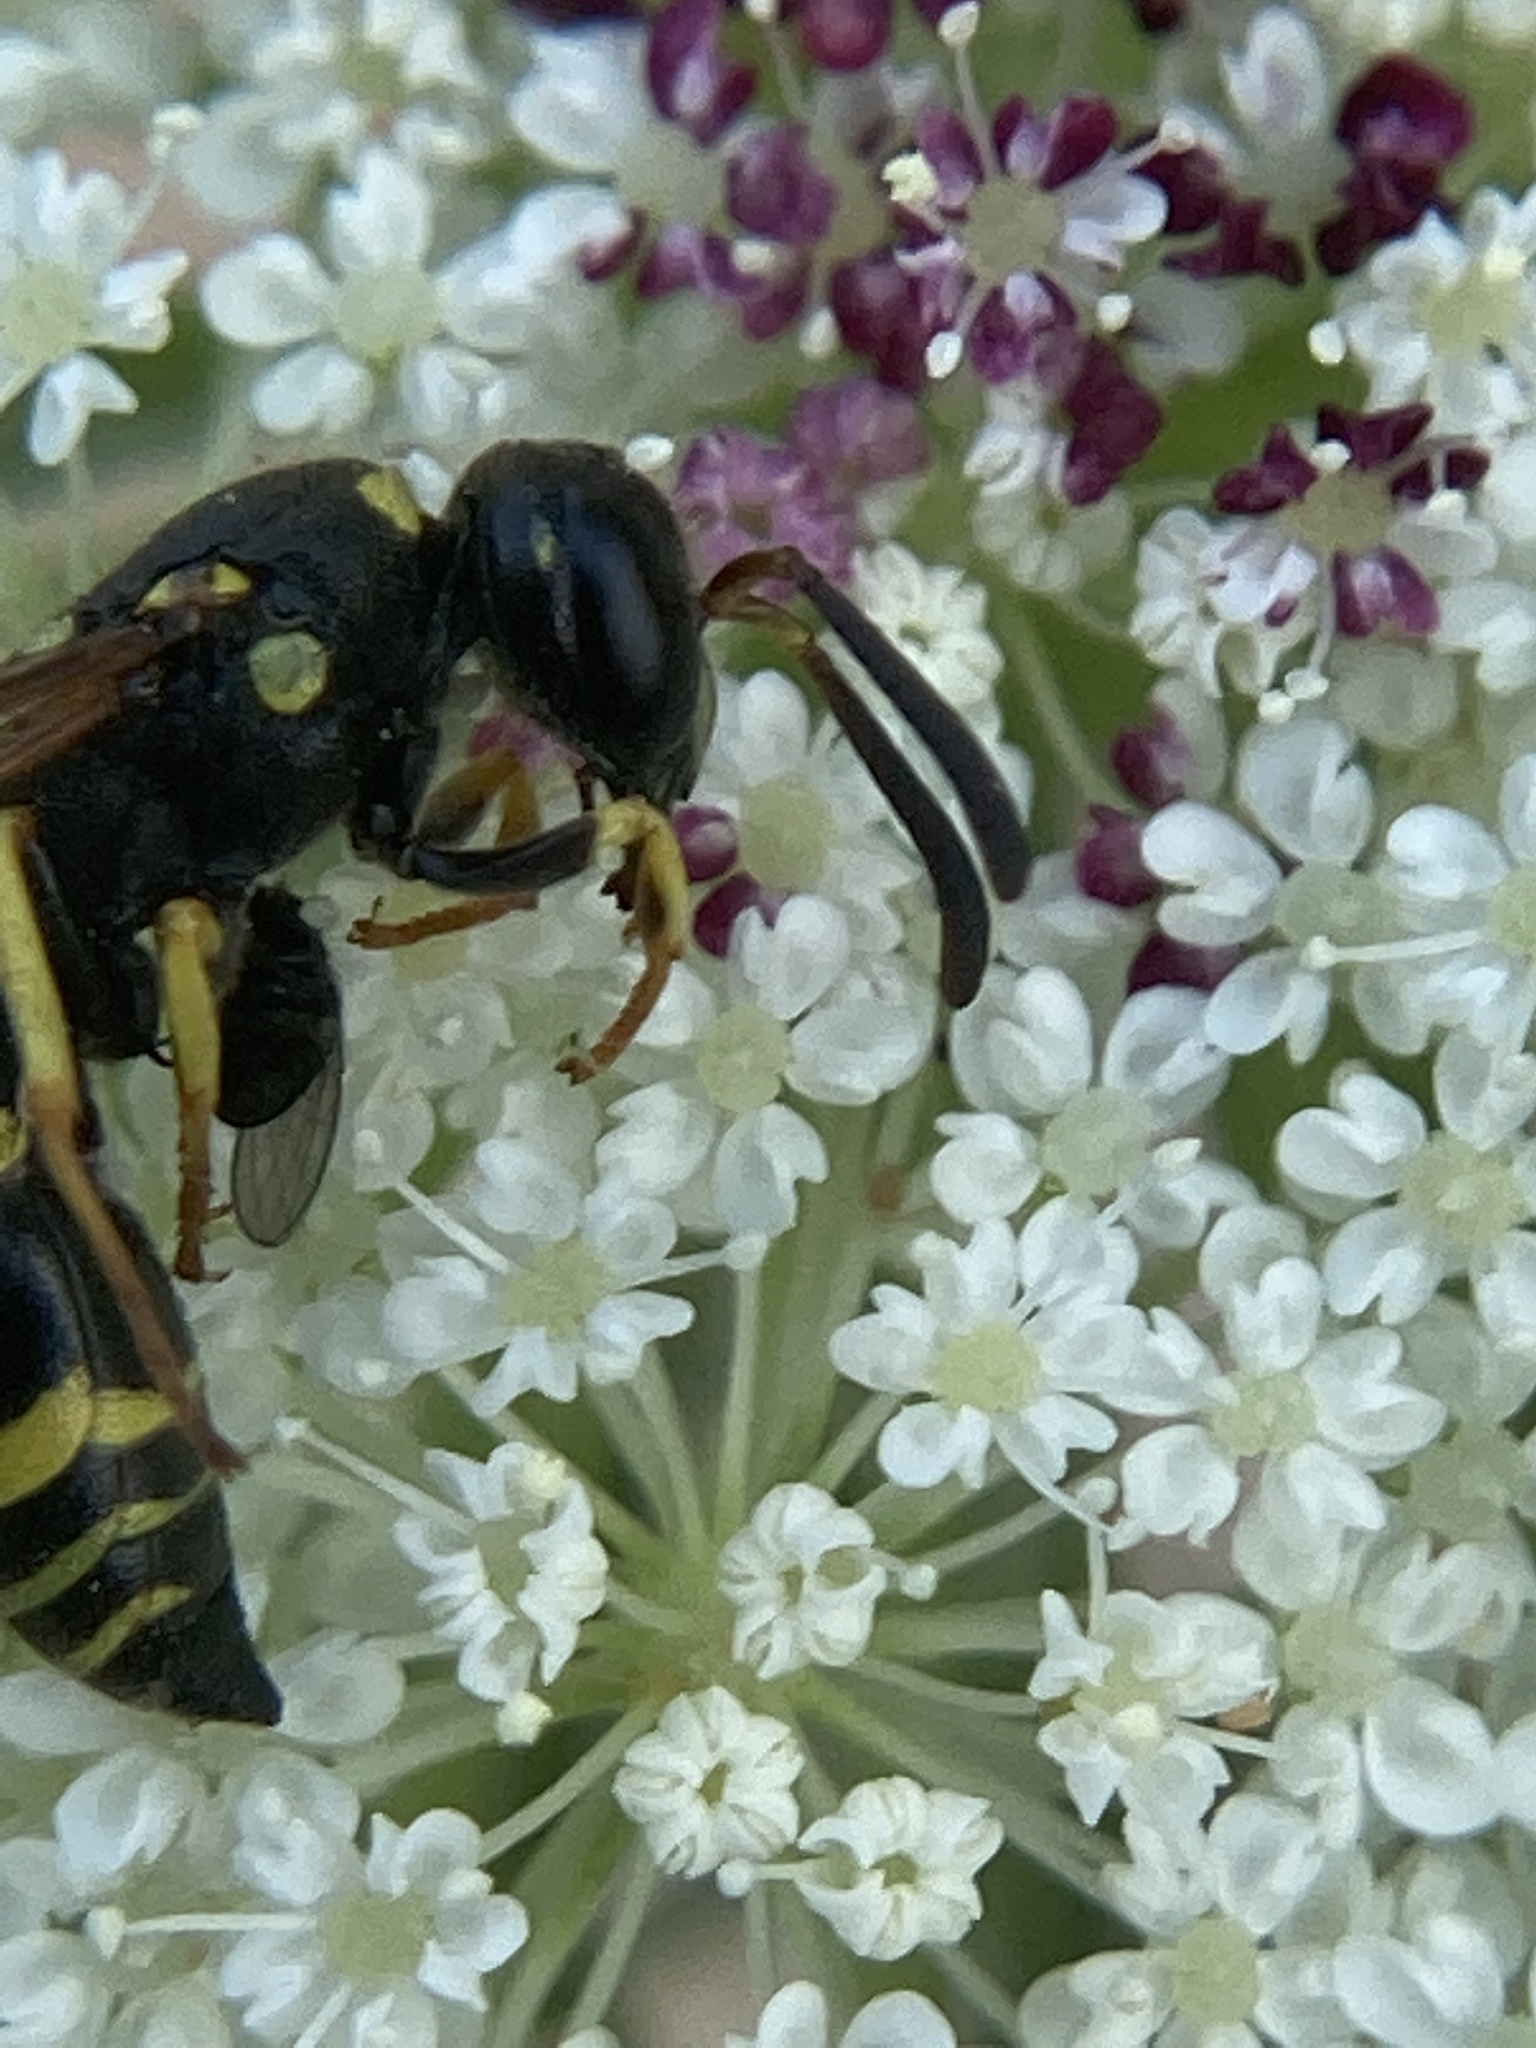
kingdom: Animalia
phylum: Arthropoda
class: Insecta
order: Hymenoptera
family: Vespidae
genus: Ancistrocerus
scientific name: Ancistrocerus adiabatus
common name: Bramble mason wasp
